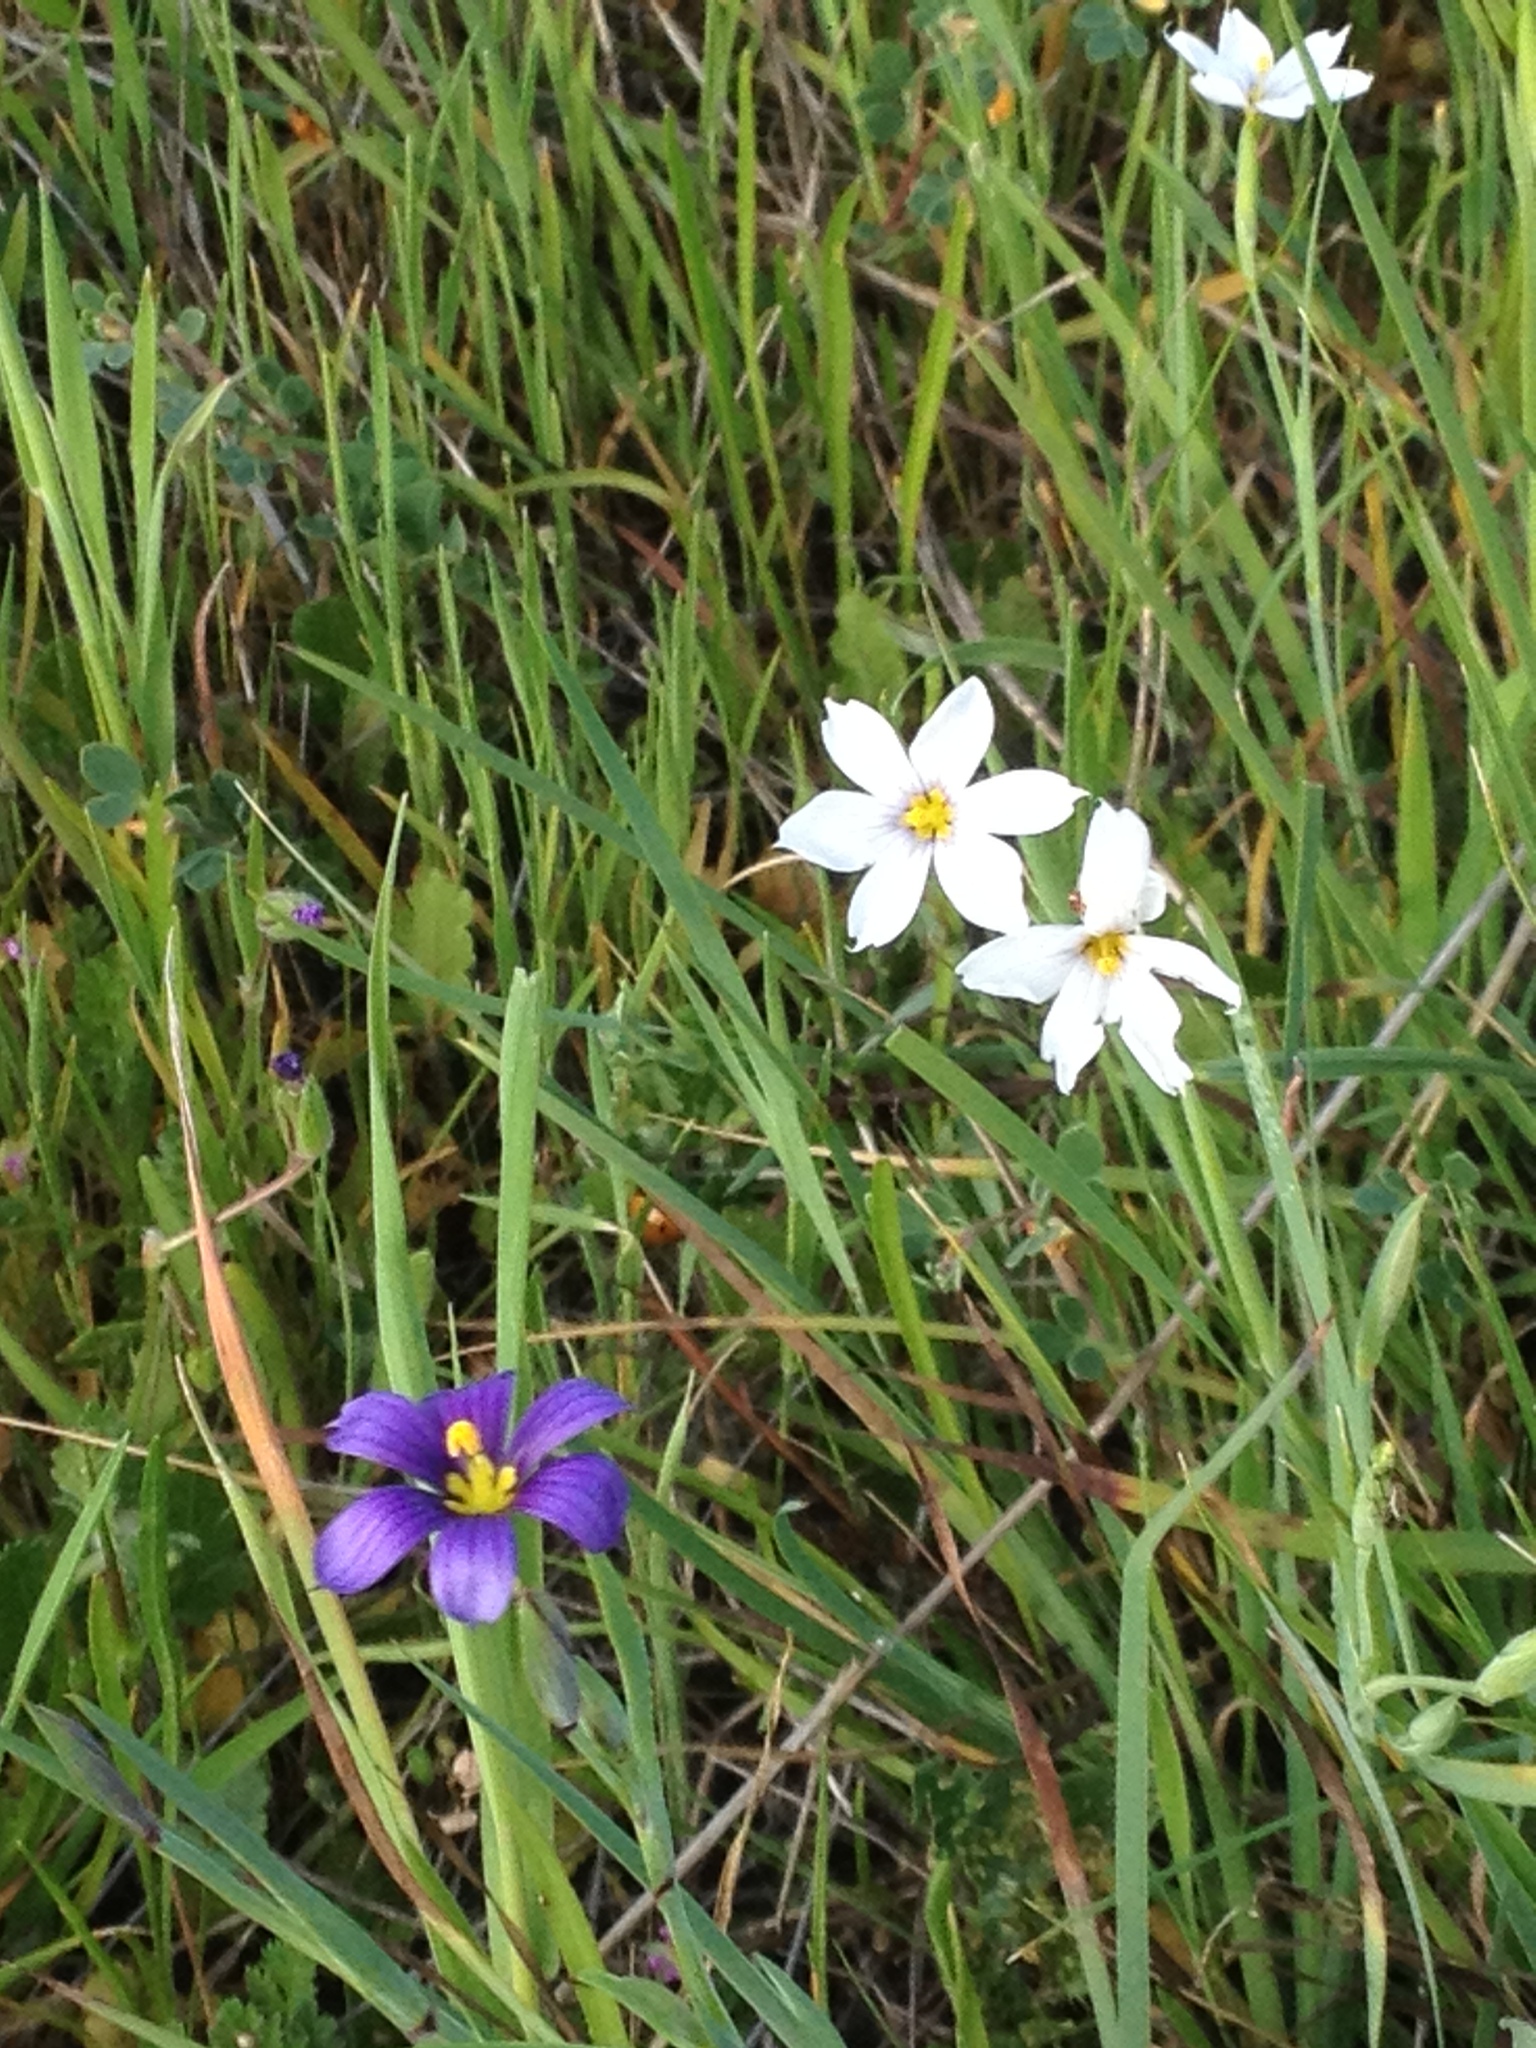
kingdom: Plantae
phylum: Tracheophyta
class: Liliopsida
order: Asparagales
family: Iridaceae
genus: Sisyrinchium
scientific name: Sisyrinchium bellum
